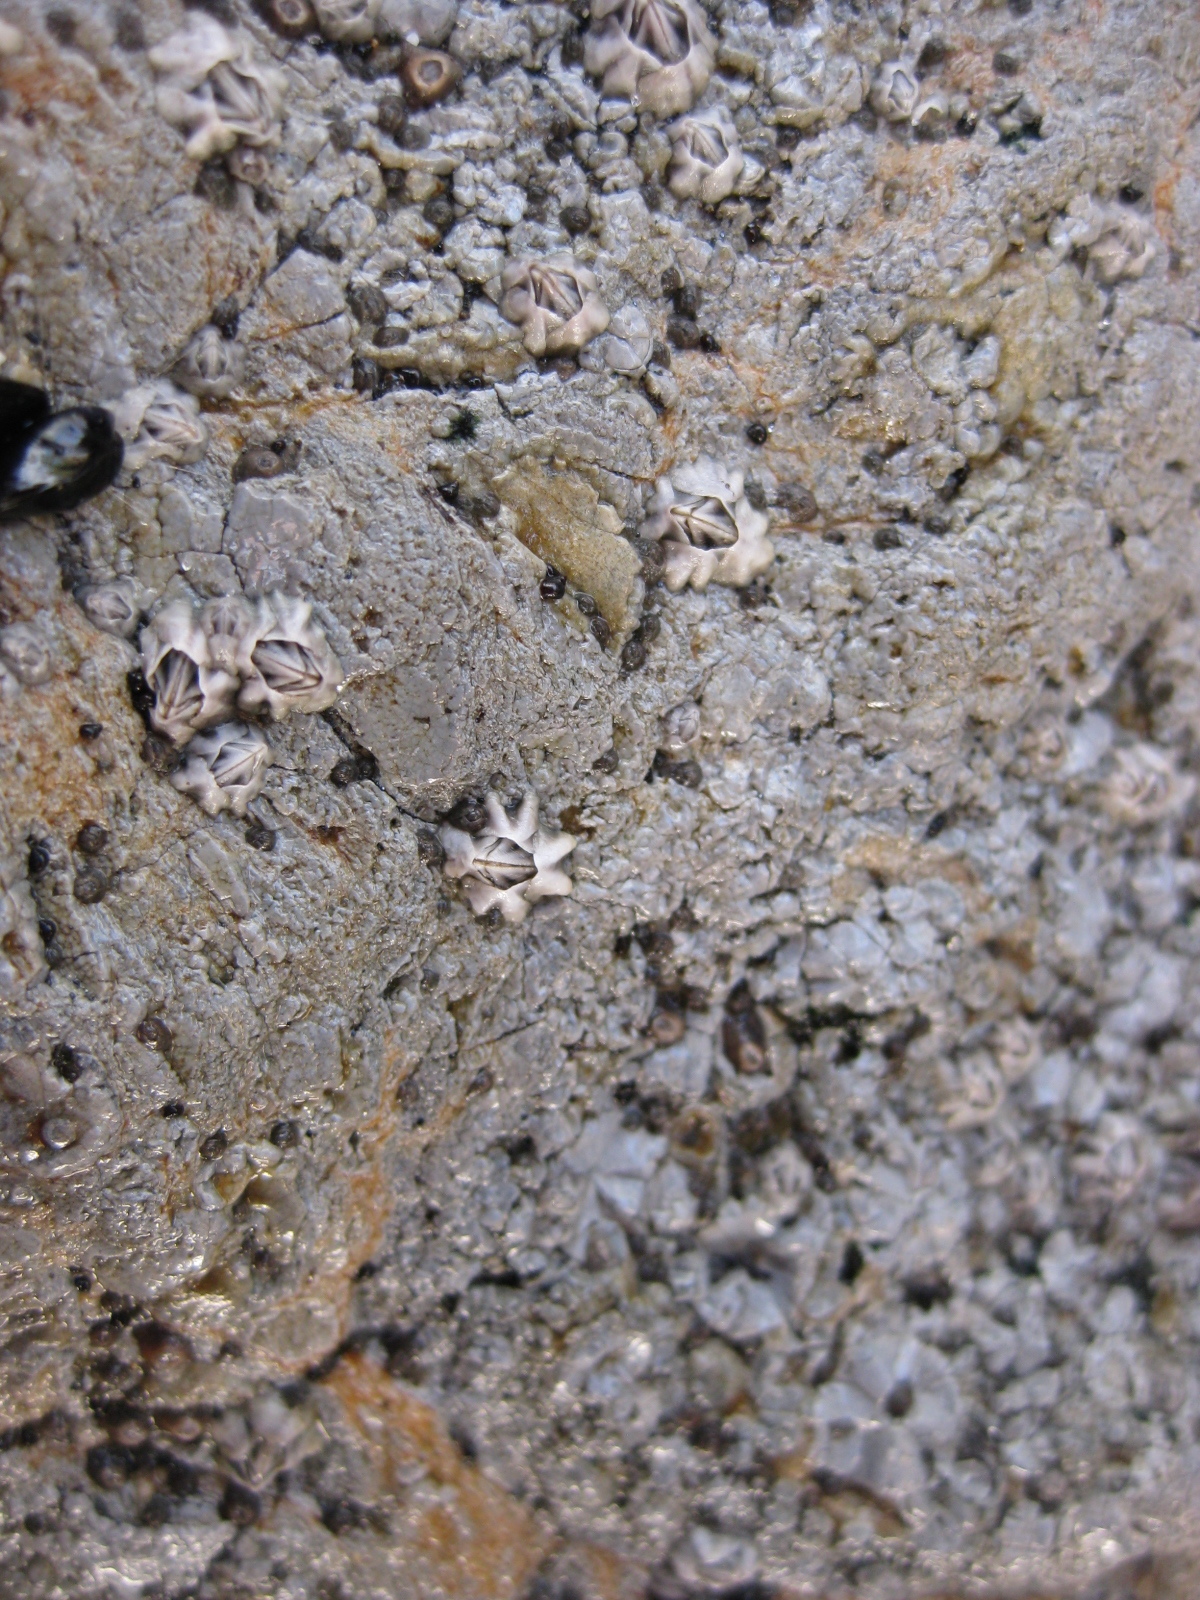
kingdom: Animalia
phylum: Arthropoda
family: Elminiidae
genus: Austrominius
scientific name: Austrominius modestus
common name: Australasian barnacle
